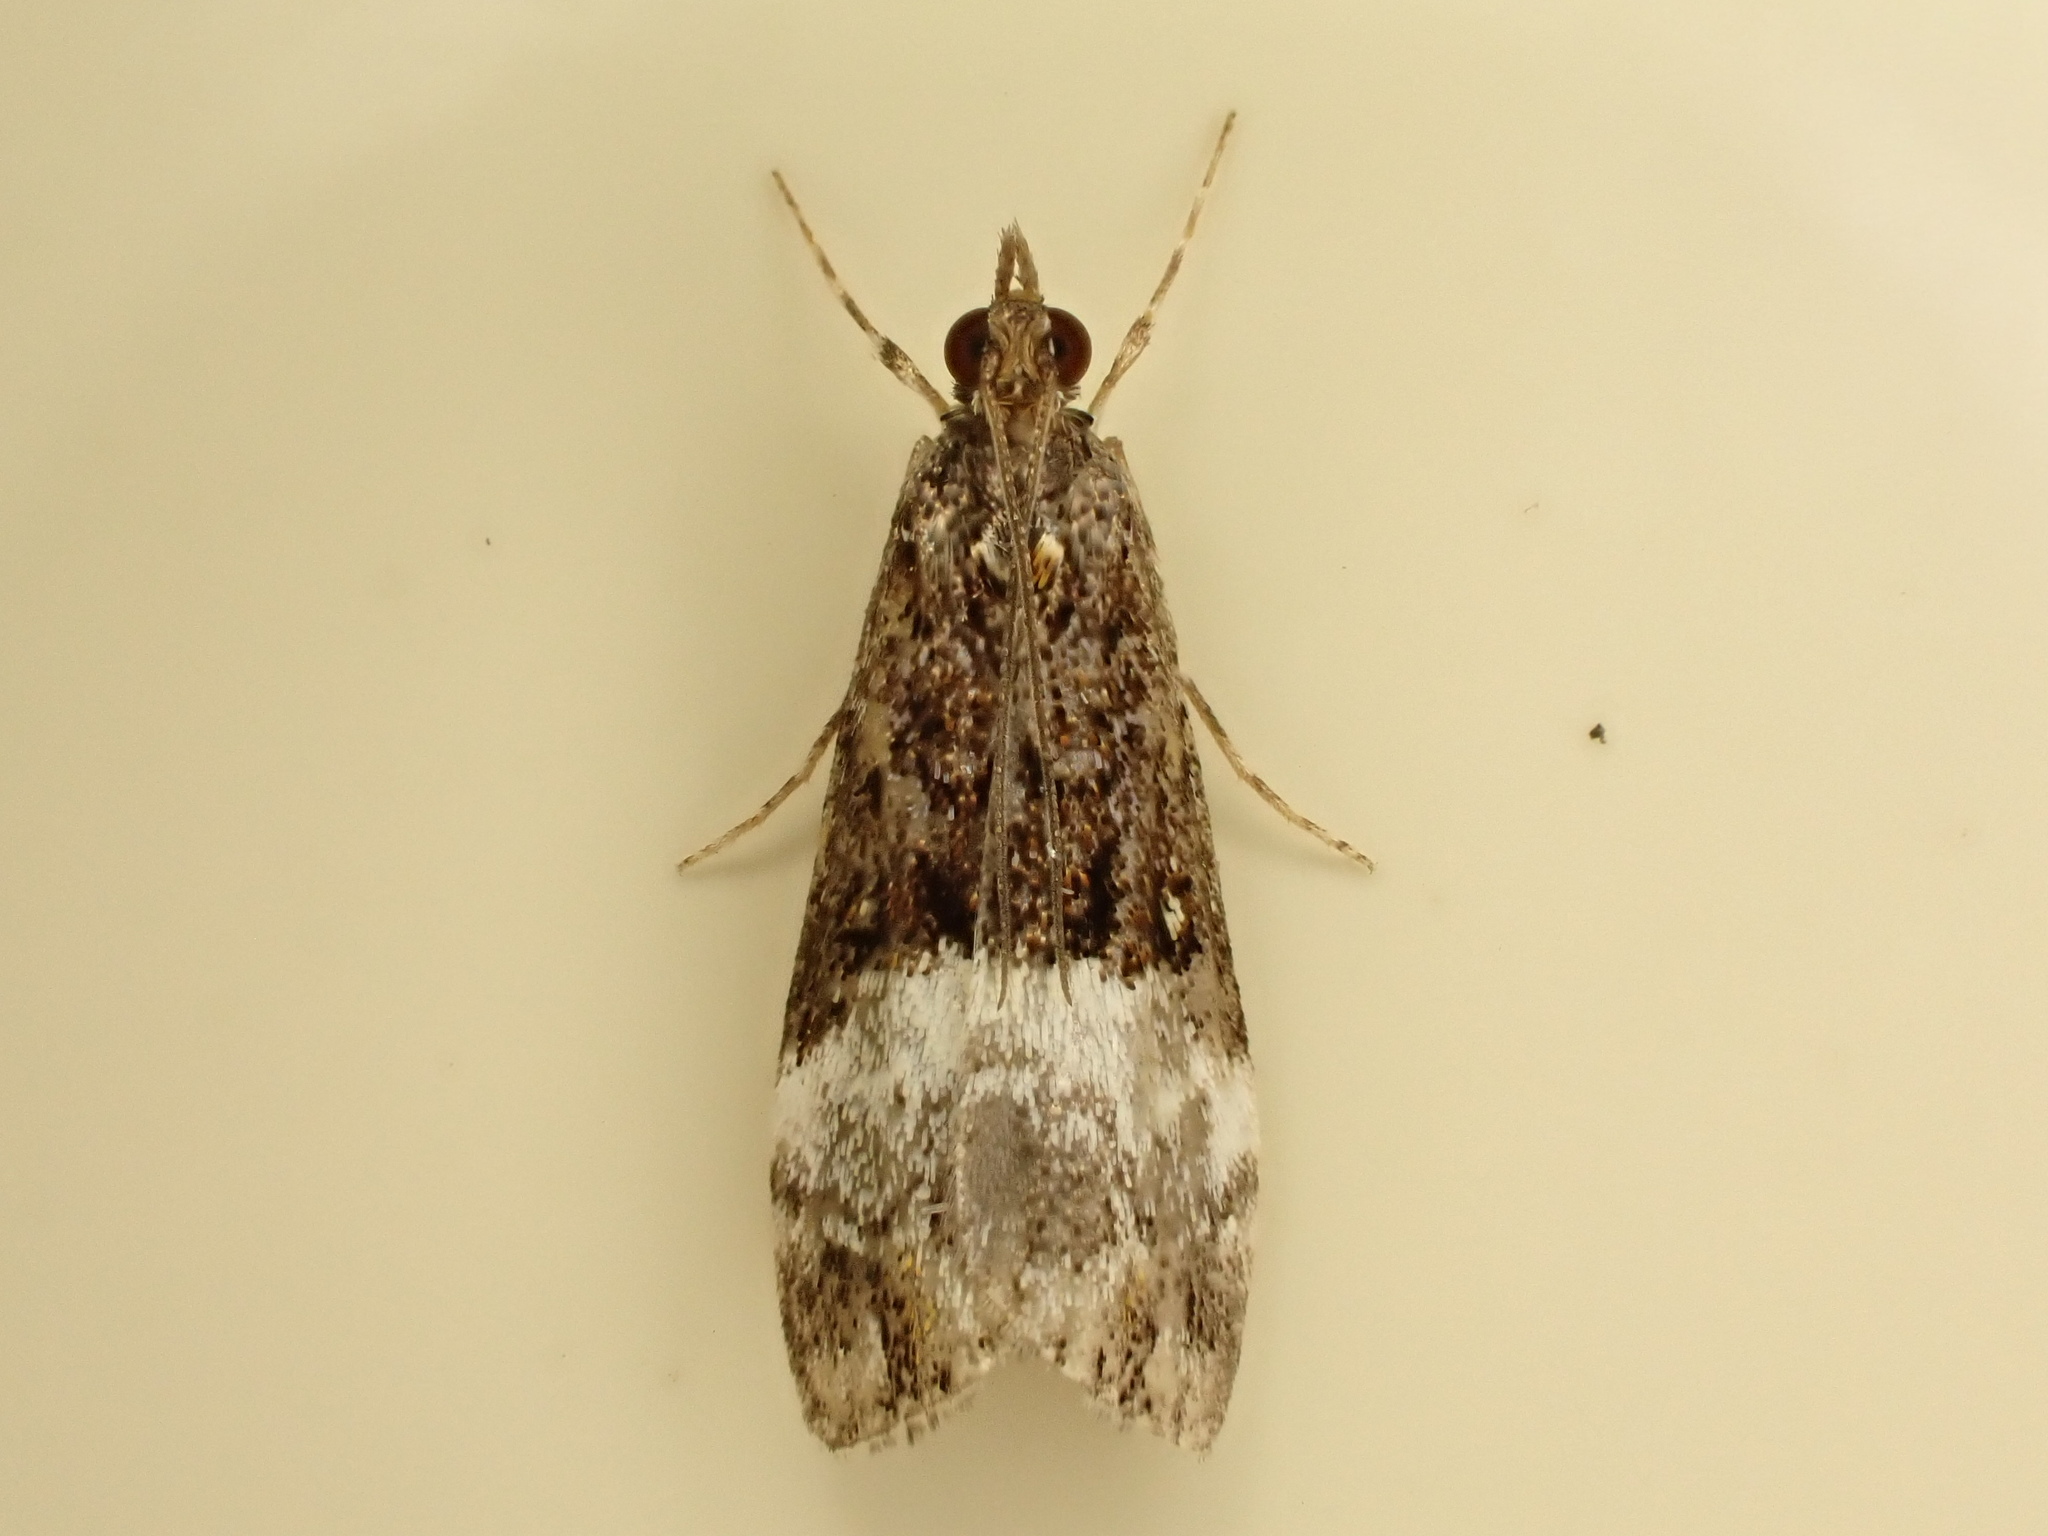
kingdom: Animalia
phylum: Arthropoda
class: Insecta
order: Lepidoptera
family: Crambidae
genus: Scoparia
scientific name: Scoparia minusculalis
